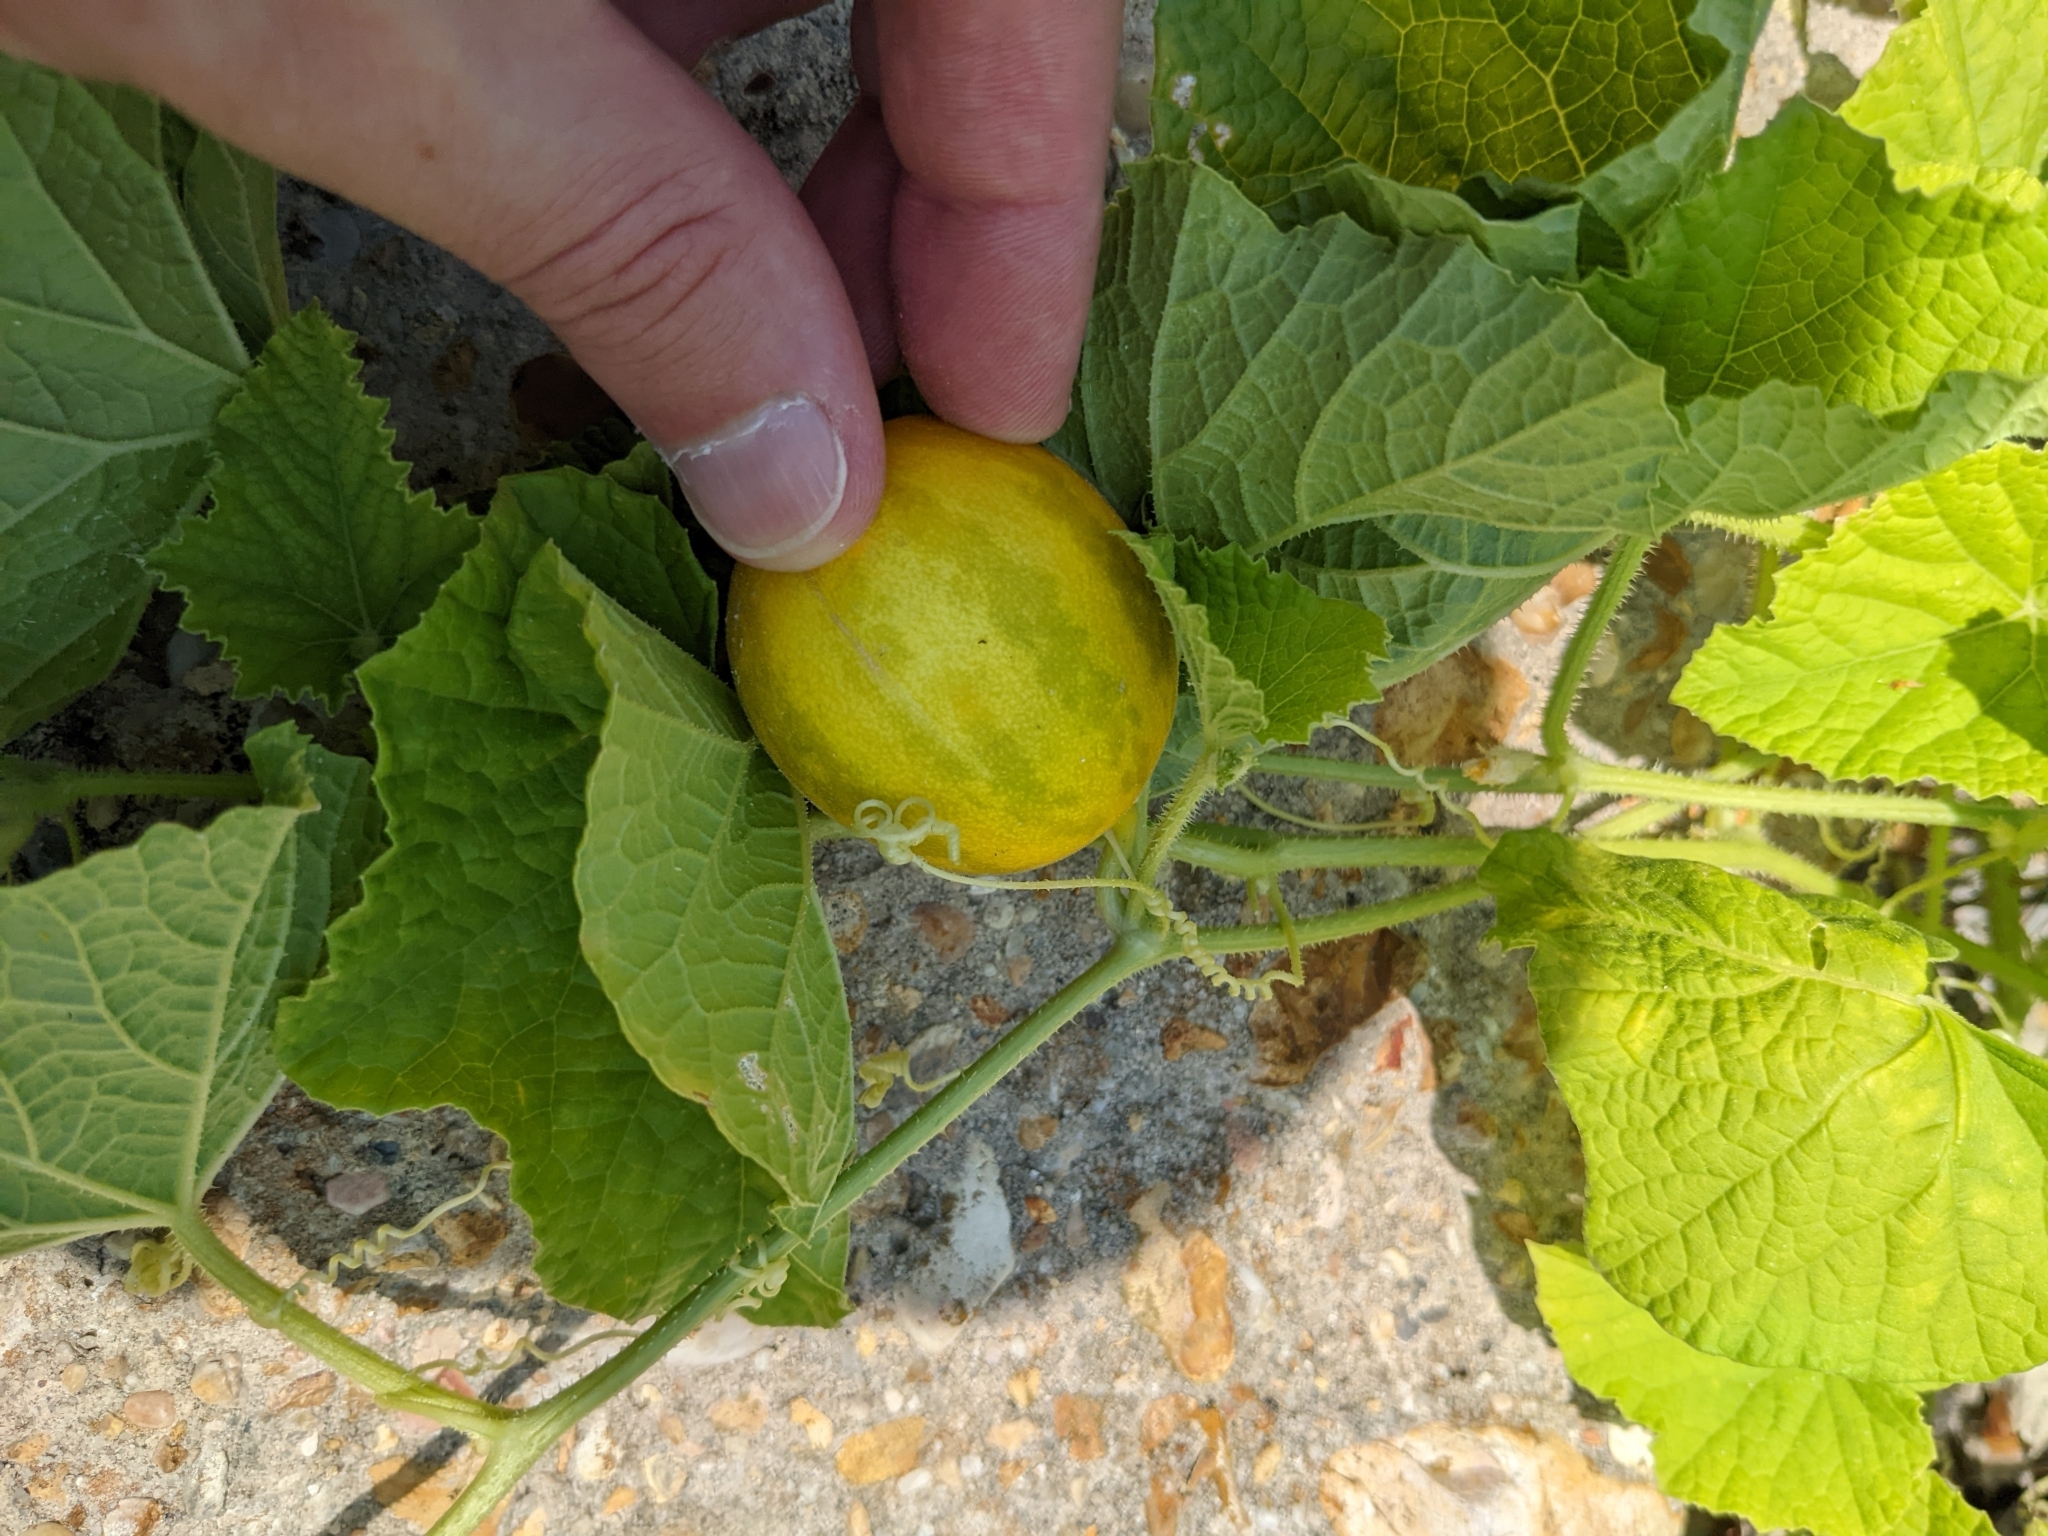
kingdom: Plantae
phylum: Tracheophyta
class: Magnoliopsida
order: Cucurbitales
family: Cucurbitaceae
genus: Cucumis
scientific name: Cucumis melo
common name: Melon
